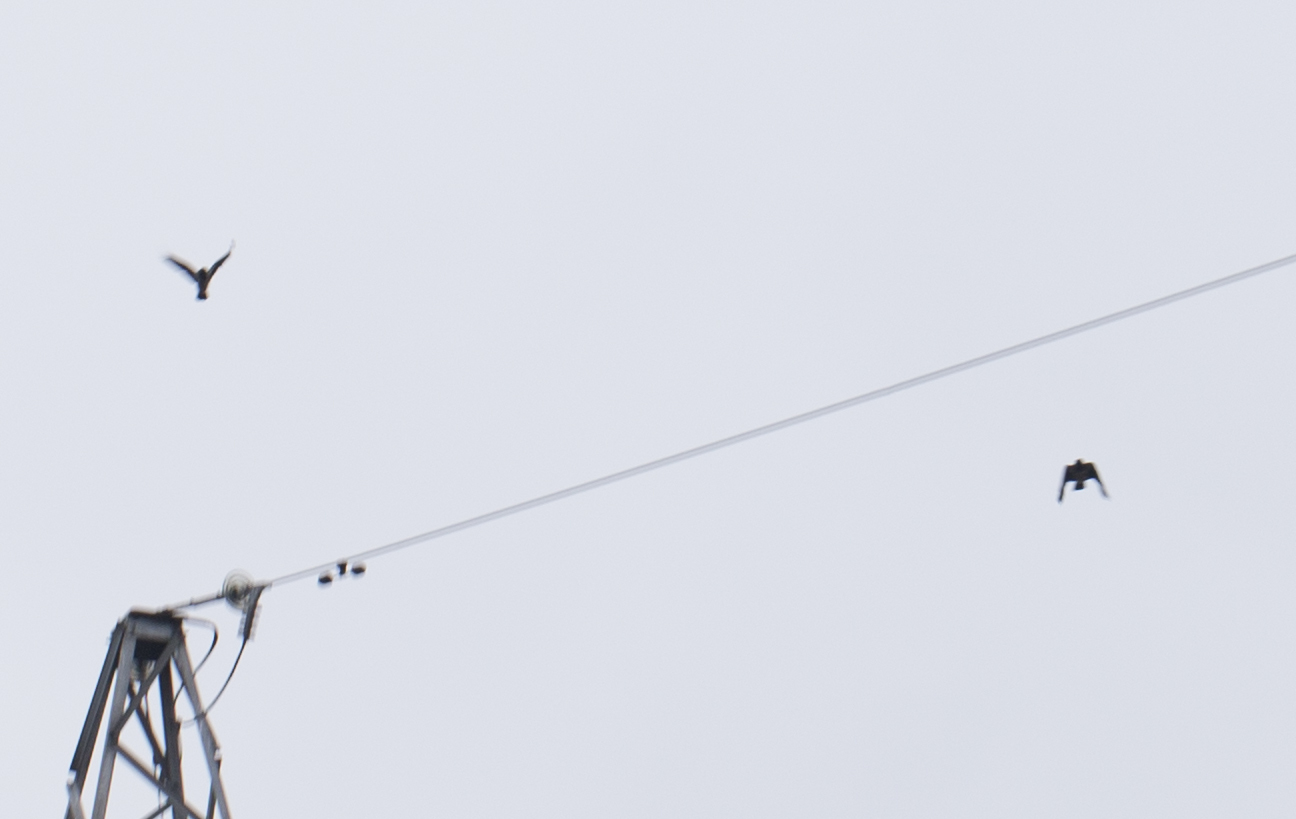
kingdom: Animalia
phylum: Chordata
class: Aves
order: Passeriformes
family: Corvidae
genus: Corvus
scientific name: Corvus cornix
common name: Hooded crow
